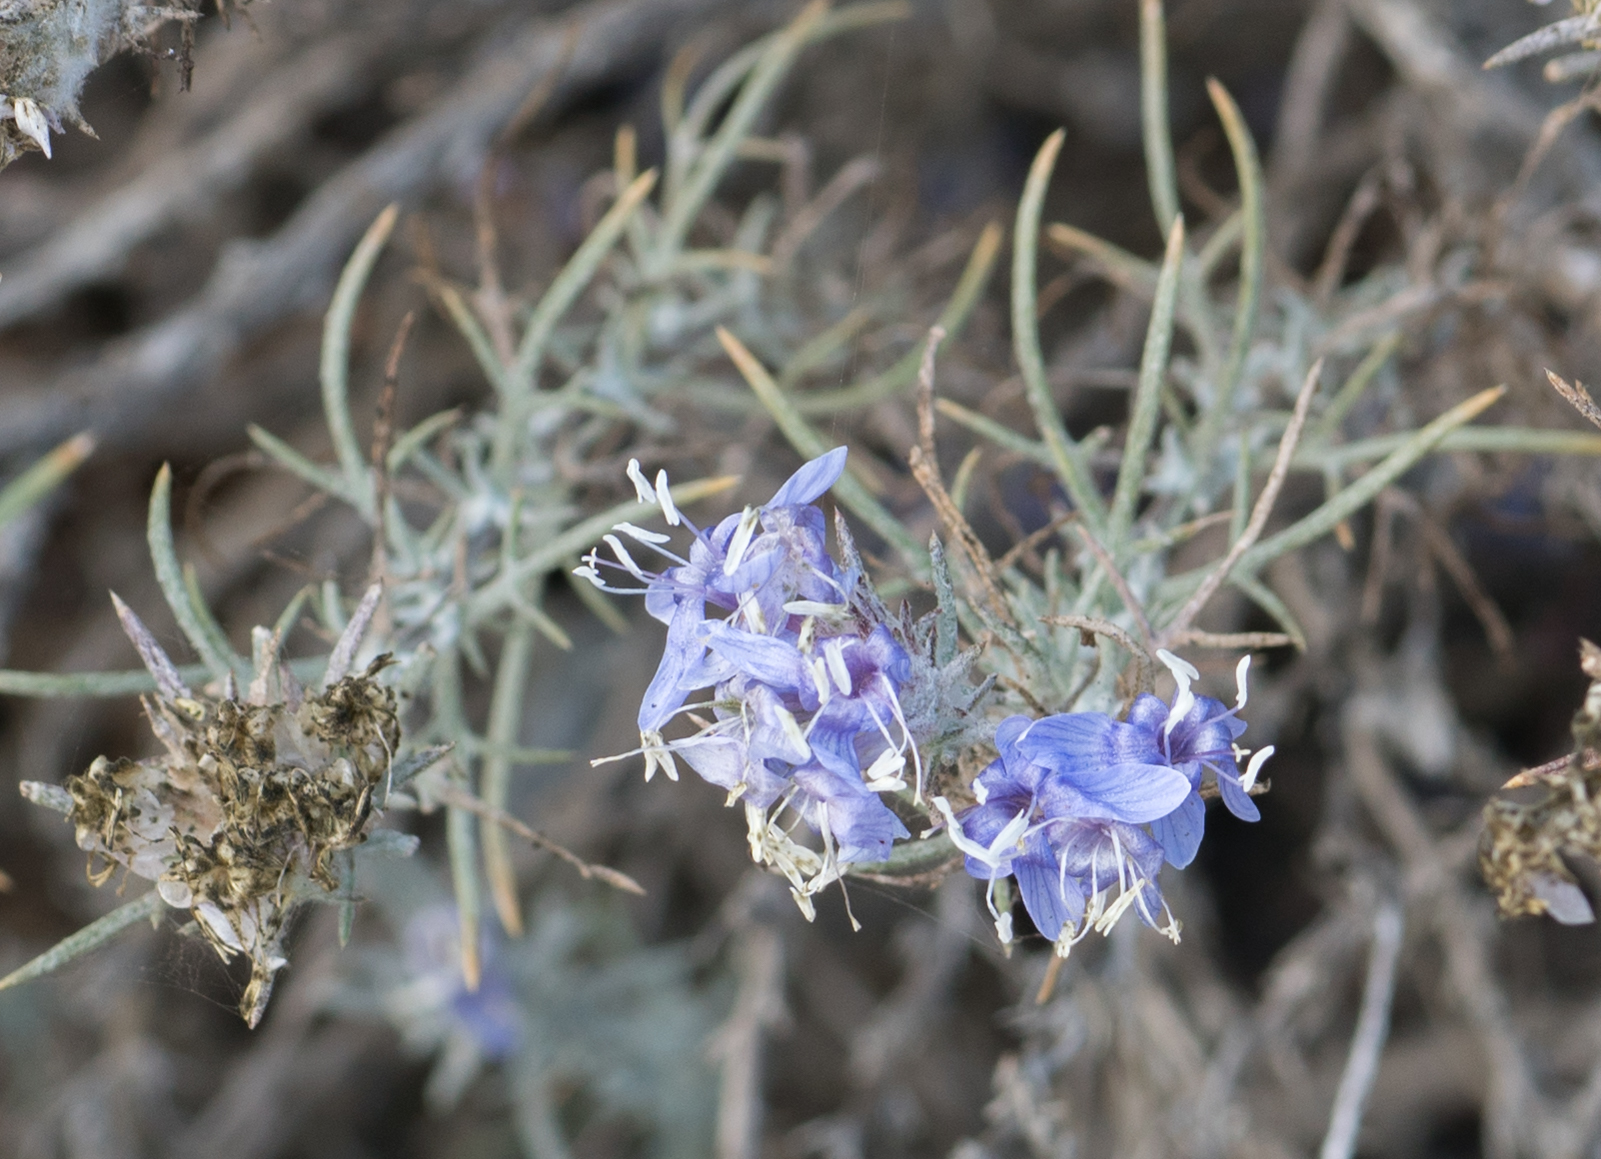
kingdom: Plantae
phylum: Tracheophyta
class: Magnoliopsida
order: Ericales
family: Polemoniaceae
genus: Eriastrum
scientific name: Eriastrum densifolium
